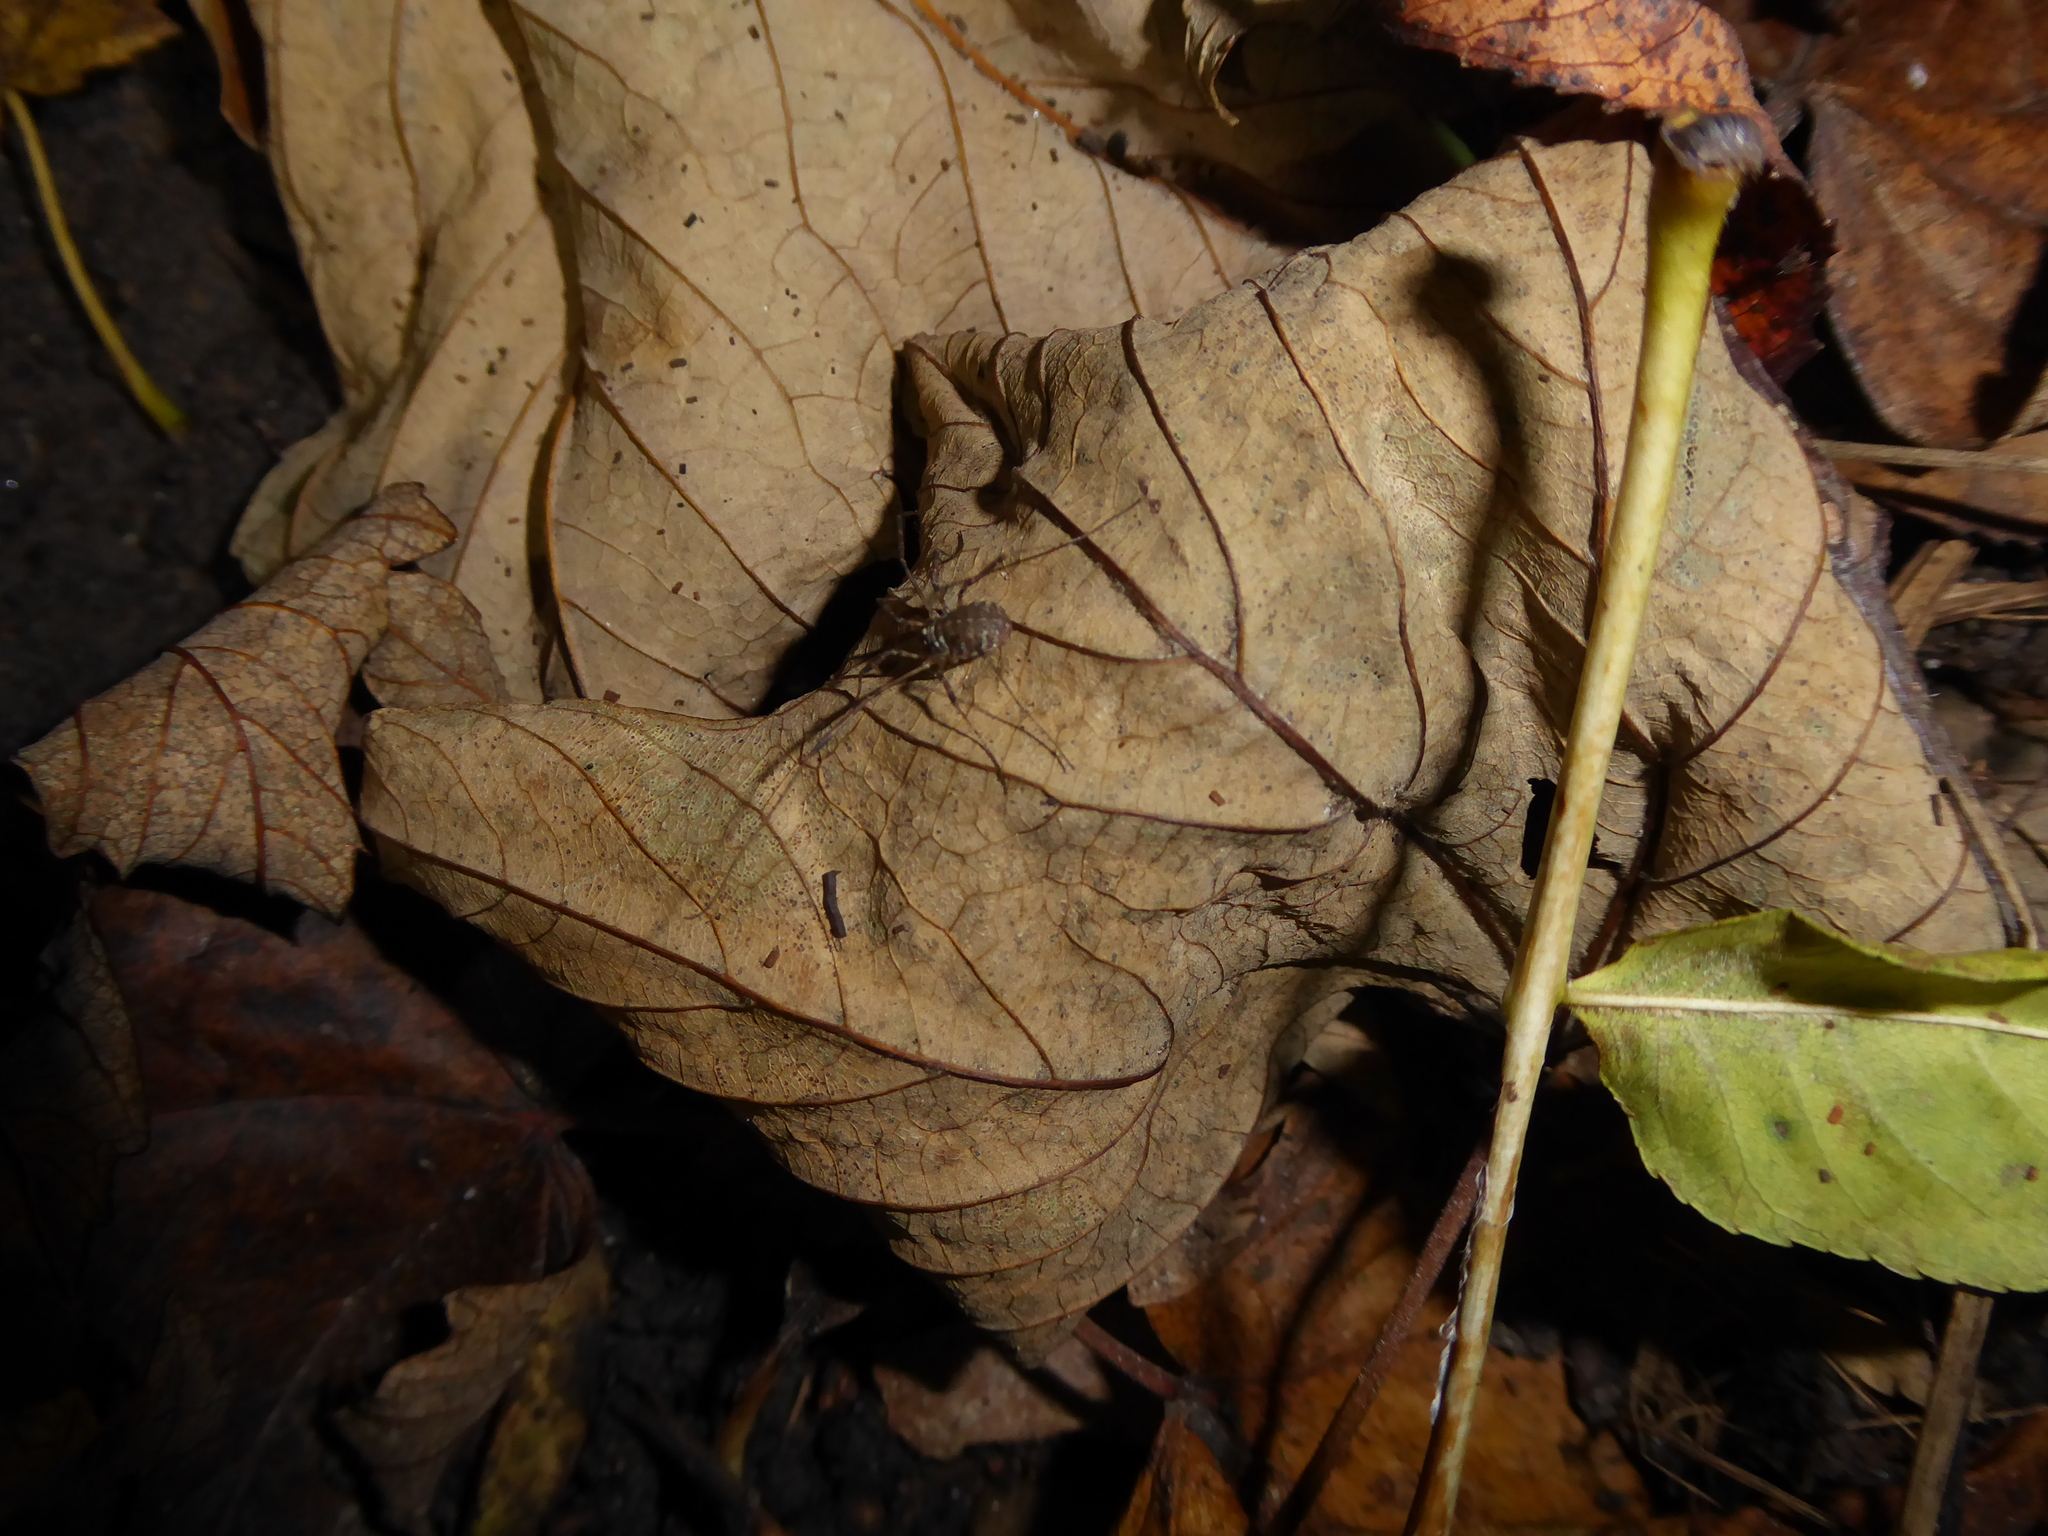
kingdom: Animalia
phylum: Arthropoda
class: Arachnida
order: Opiliones
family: Phalangiidae
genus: Paroligolophus
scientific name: Paroligolophus agrestis
